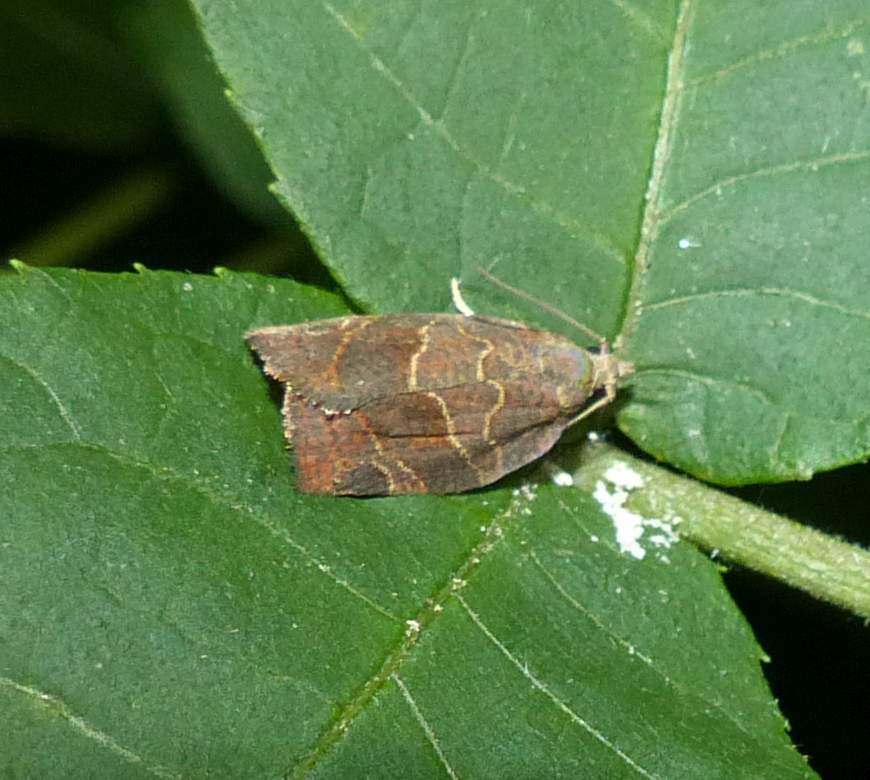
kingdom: Animalia
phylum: Arthropoda
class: Insecta
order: Lepidoptera
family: Tortricidae
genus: Pandemis
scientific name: Pandemis canadana
